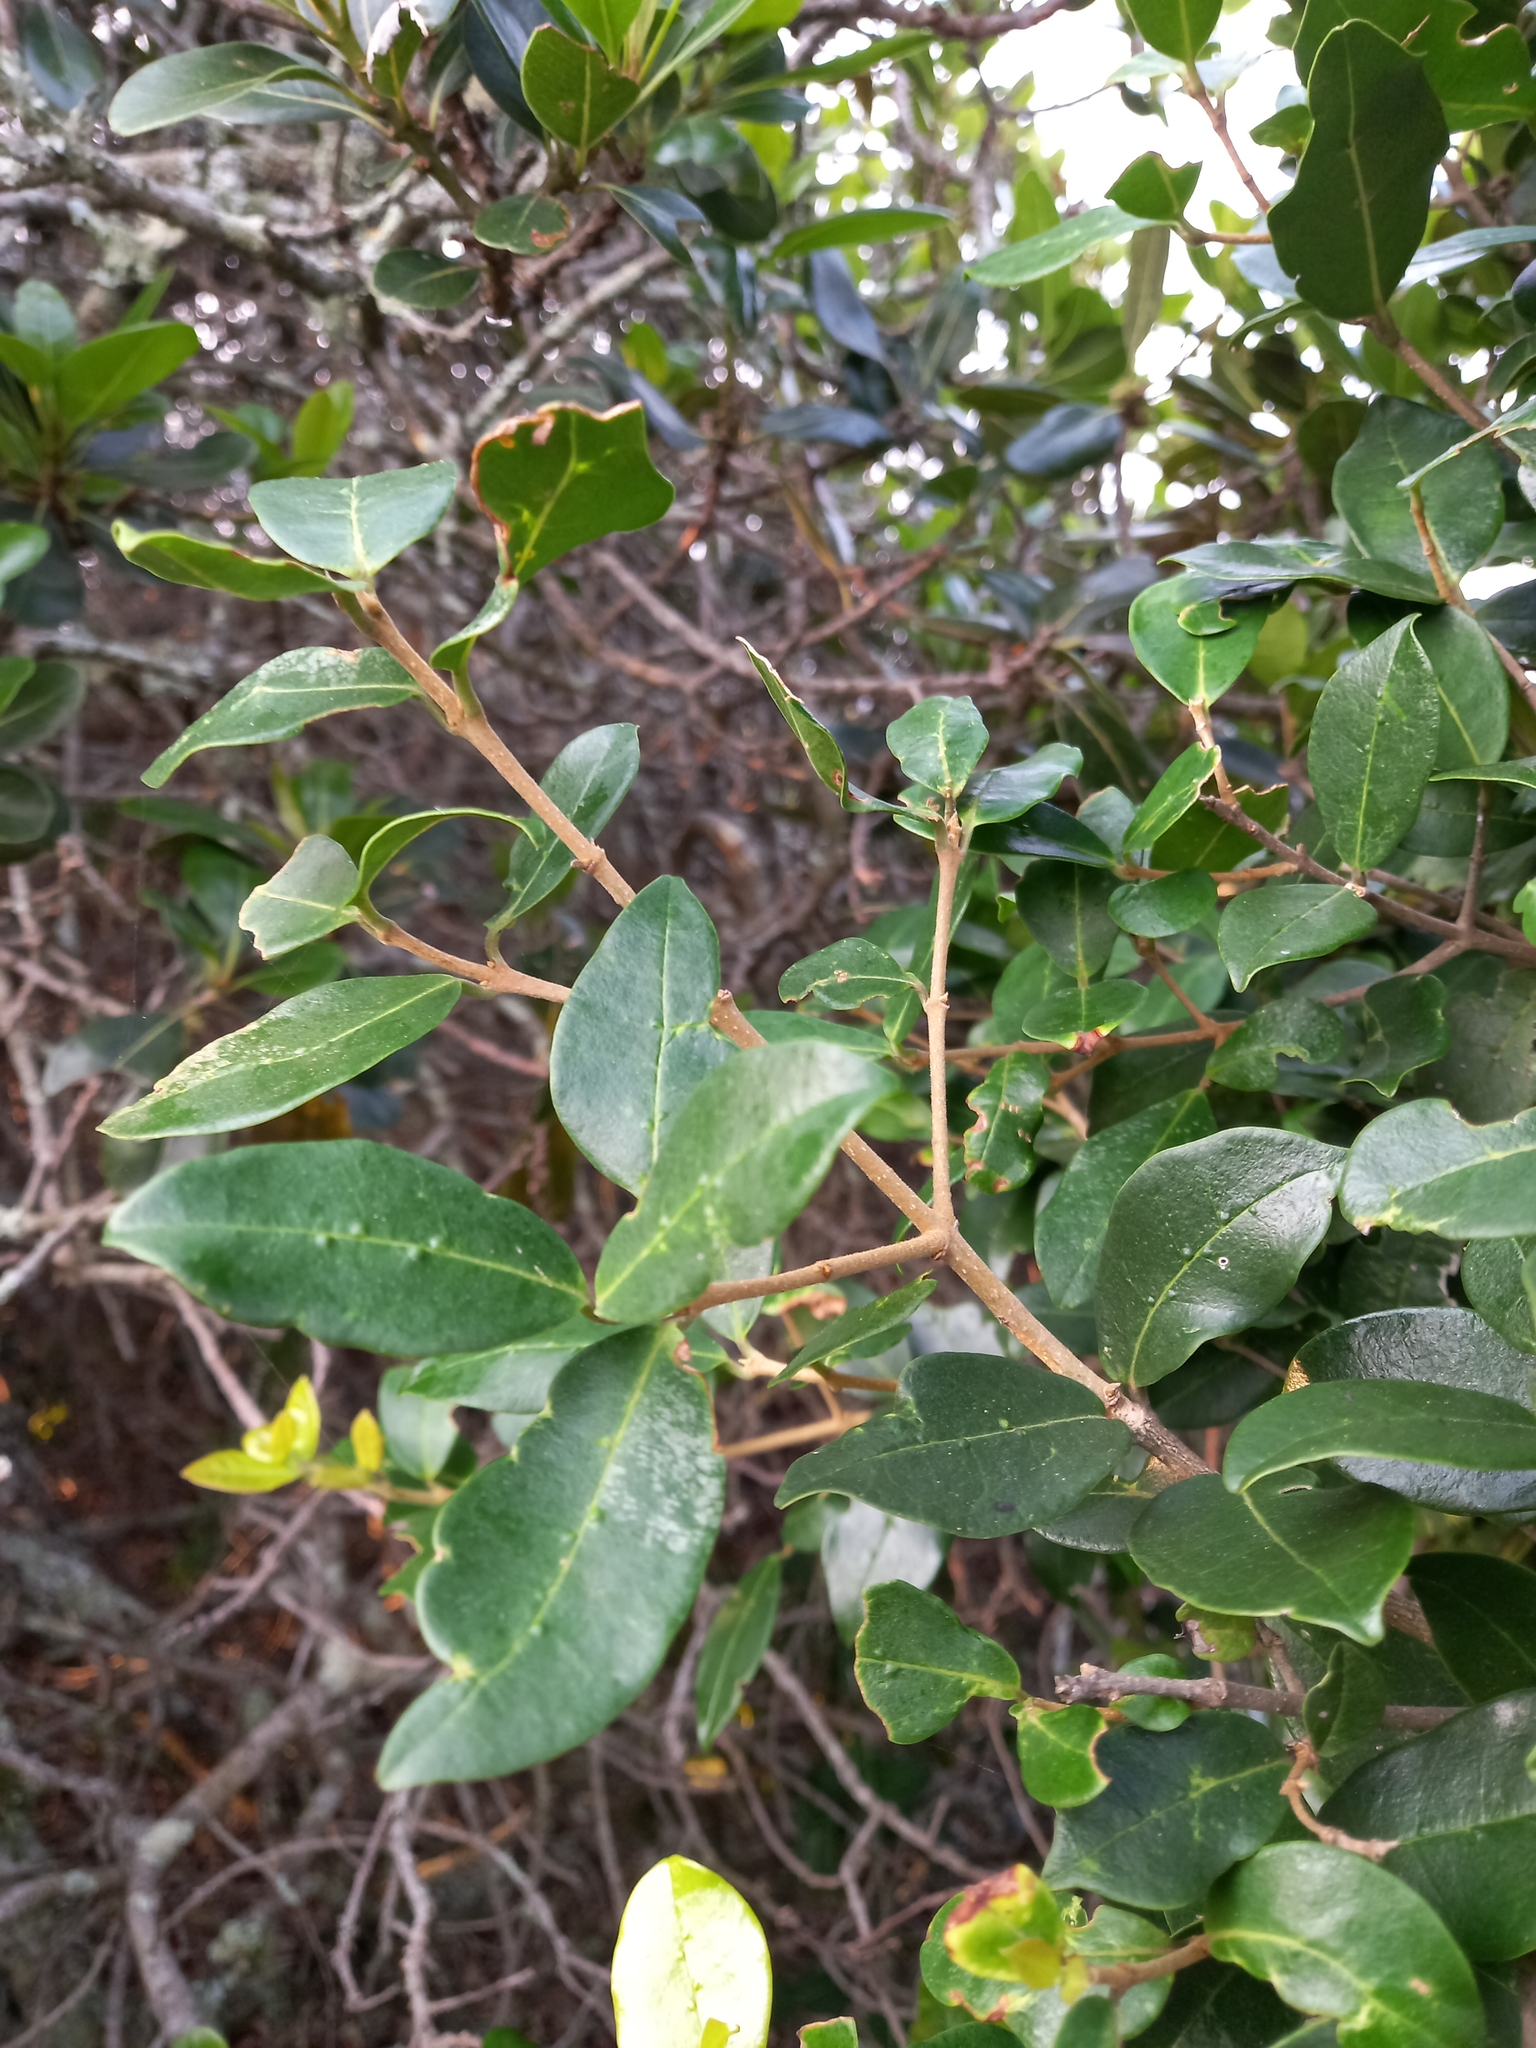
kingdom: Plantae
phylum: Tracheophyta
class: Magnoliopsida
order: Lamiales
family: Oleaceae
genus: Noronhia
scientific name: Noronhia foveolata
